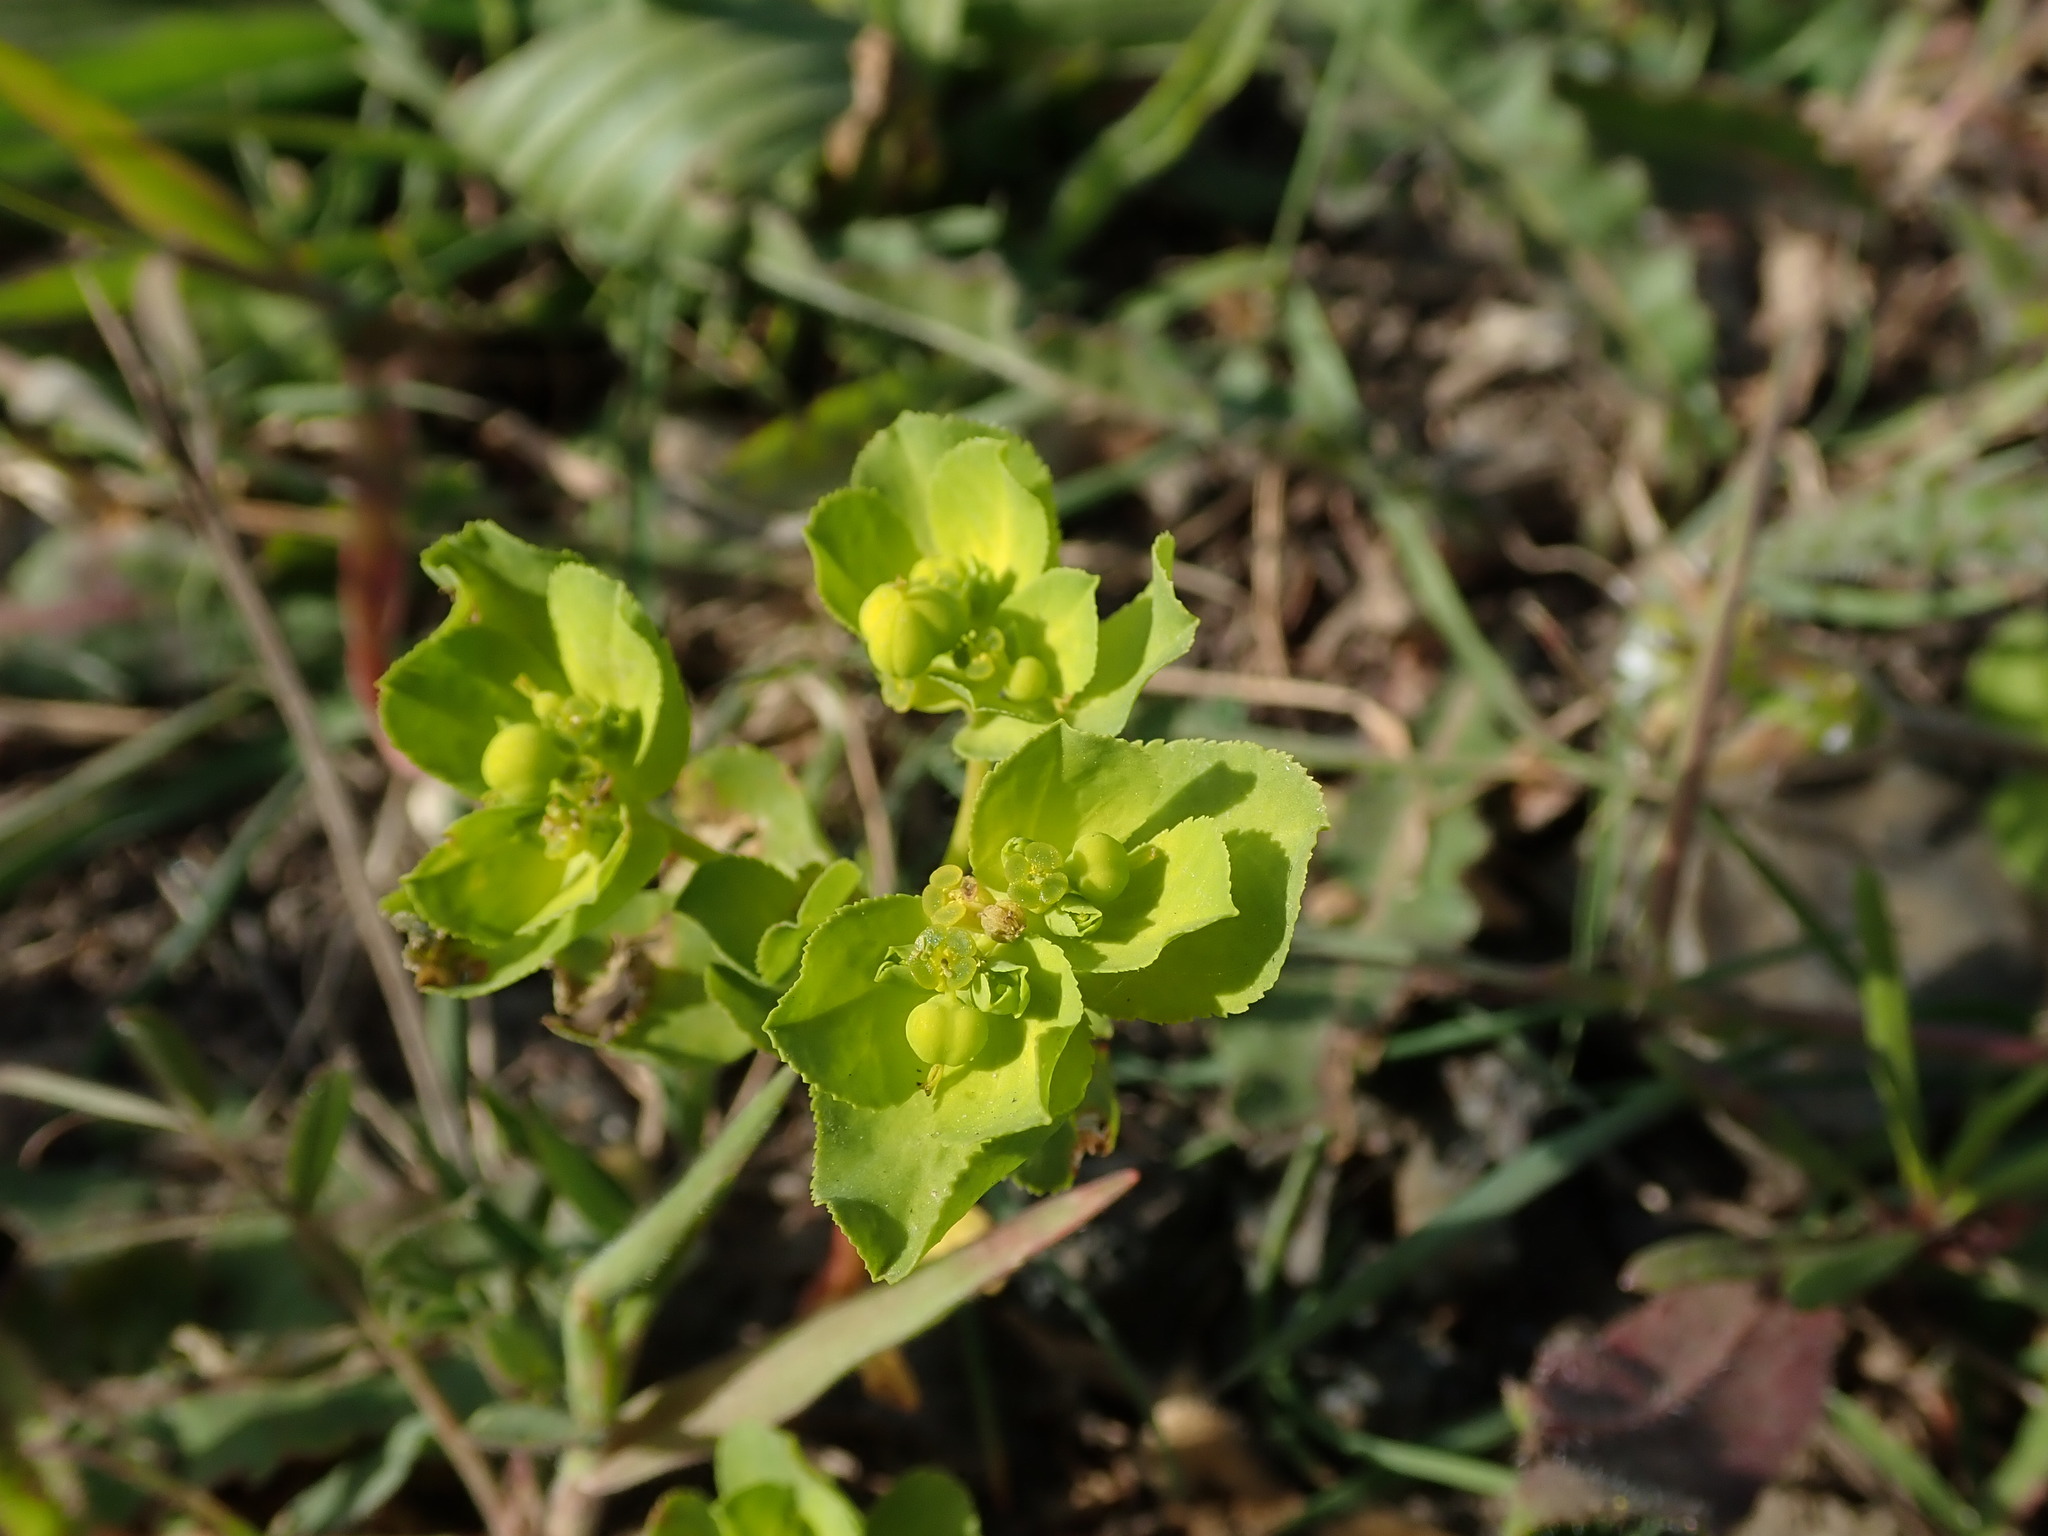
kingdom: Plantae
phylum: Tracheophyta
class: Magnoliopsida
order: Malpighiales
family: Euphorbiaceae
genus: Euphorbia
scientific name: Euphorbia helioscopia
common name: Sun spurge
